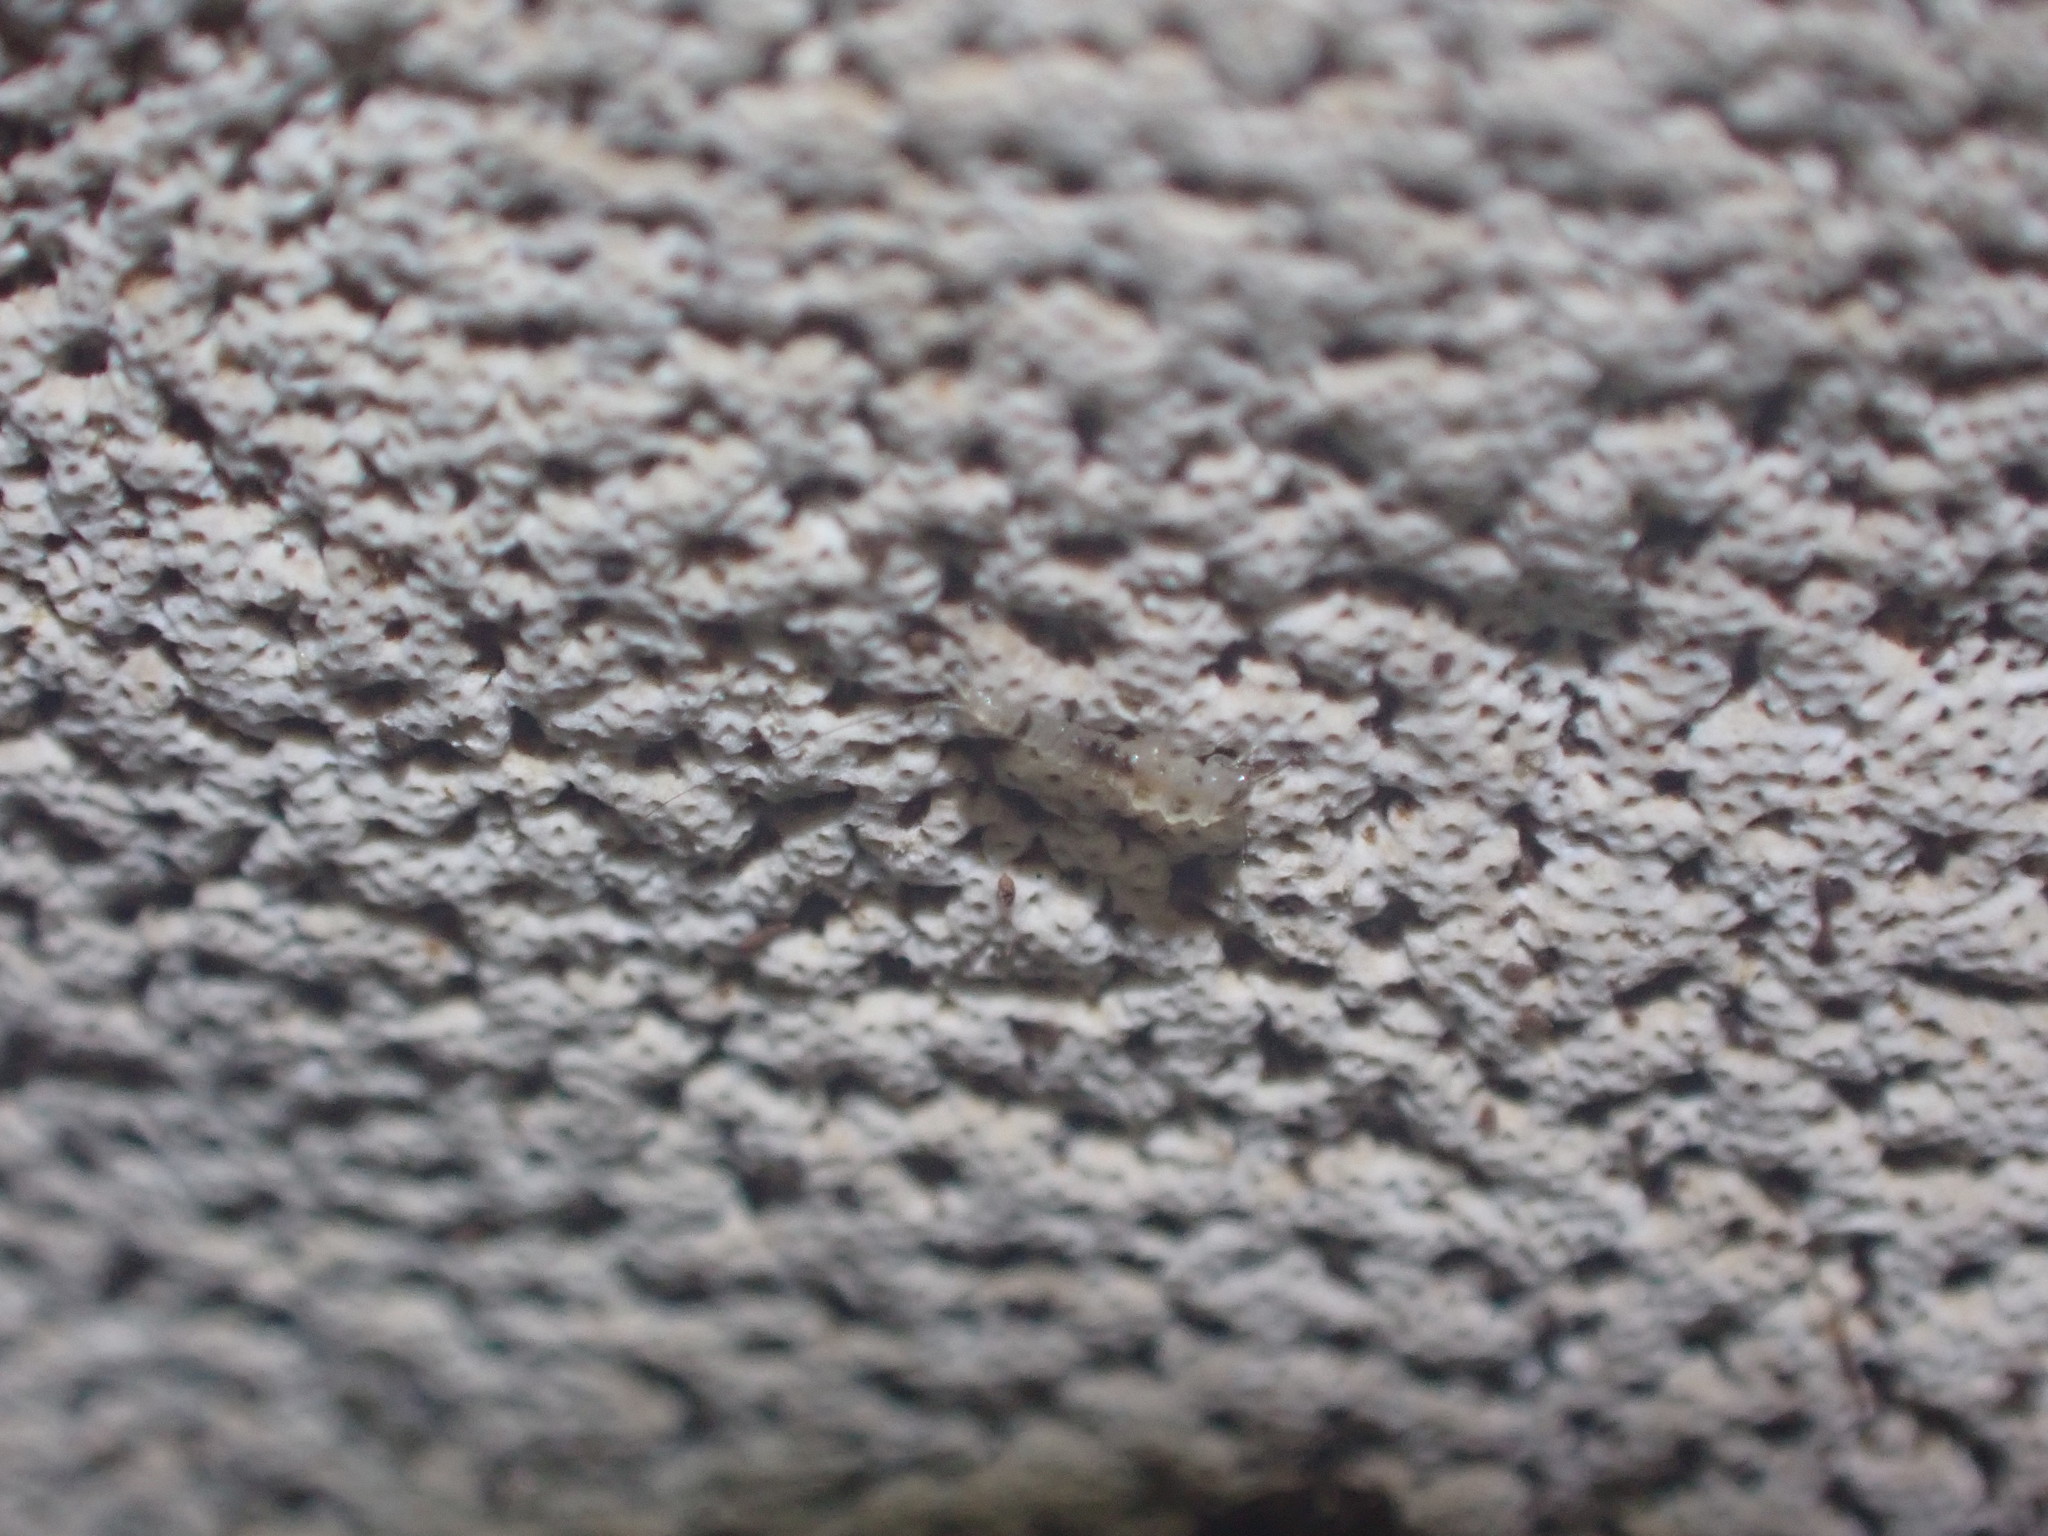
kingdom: Animalia
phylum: Arthropoda
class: Insecta
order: Coleoptera
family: Leiodidae
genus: Zearagytodes
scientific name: Zearagytodes maculifer
